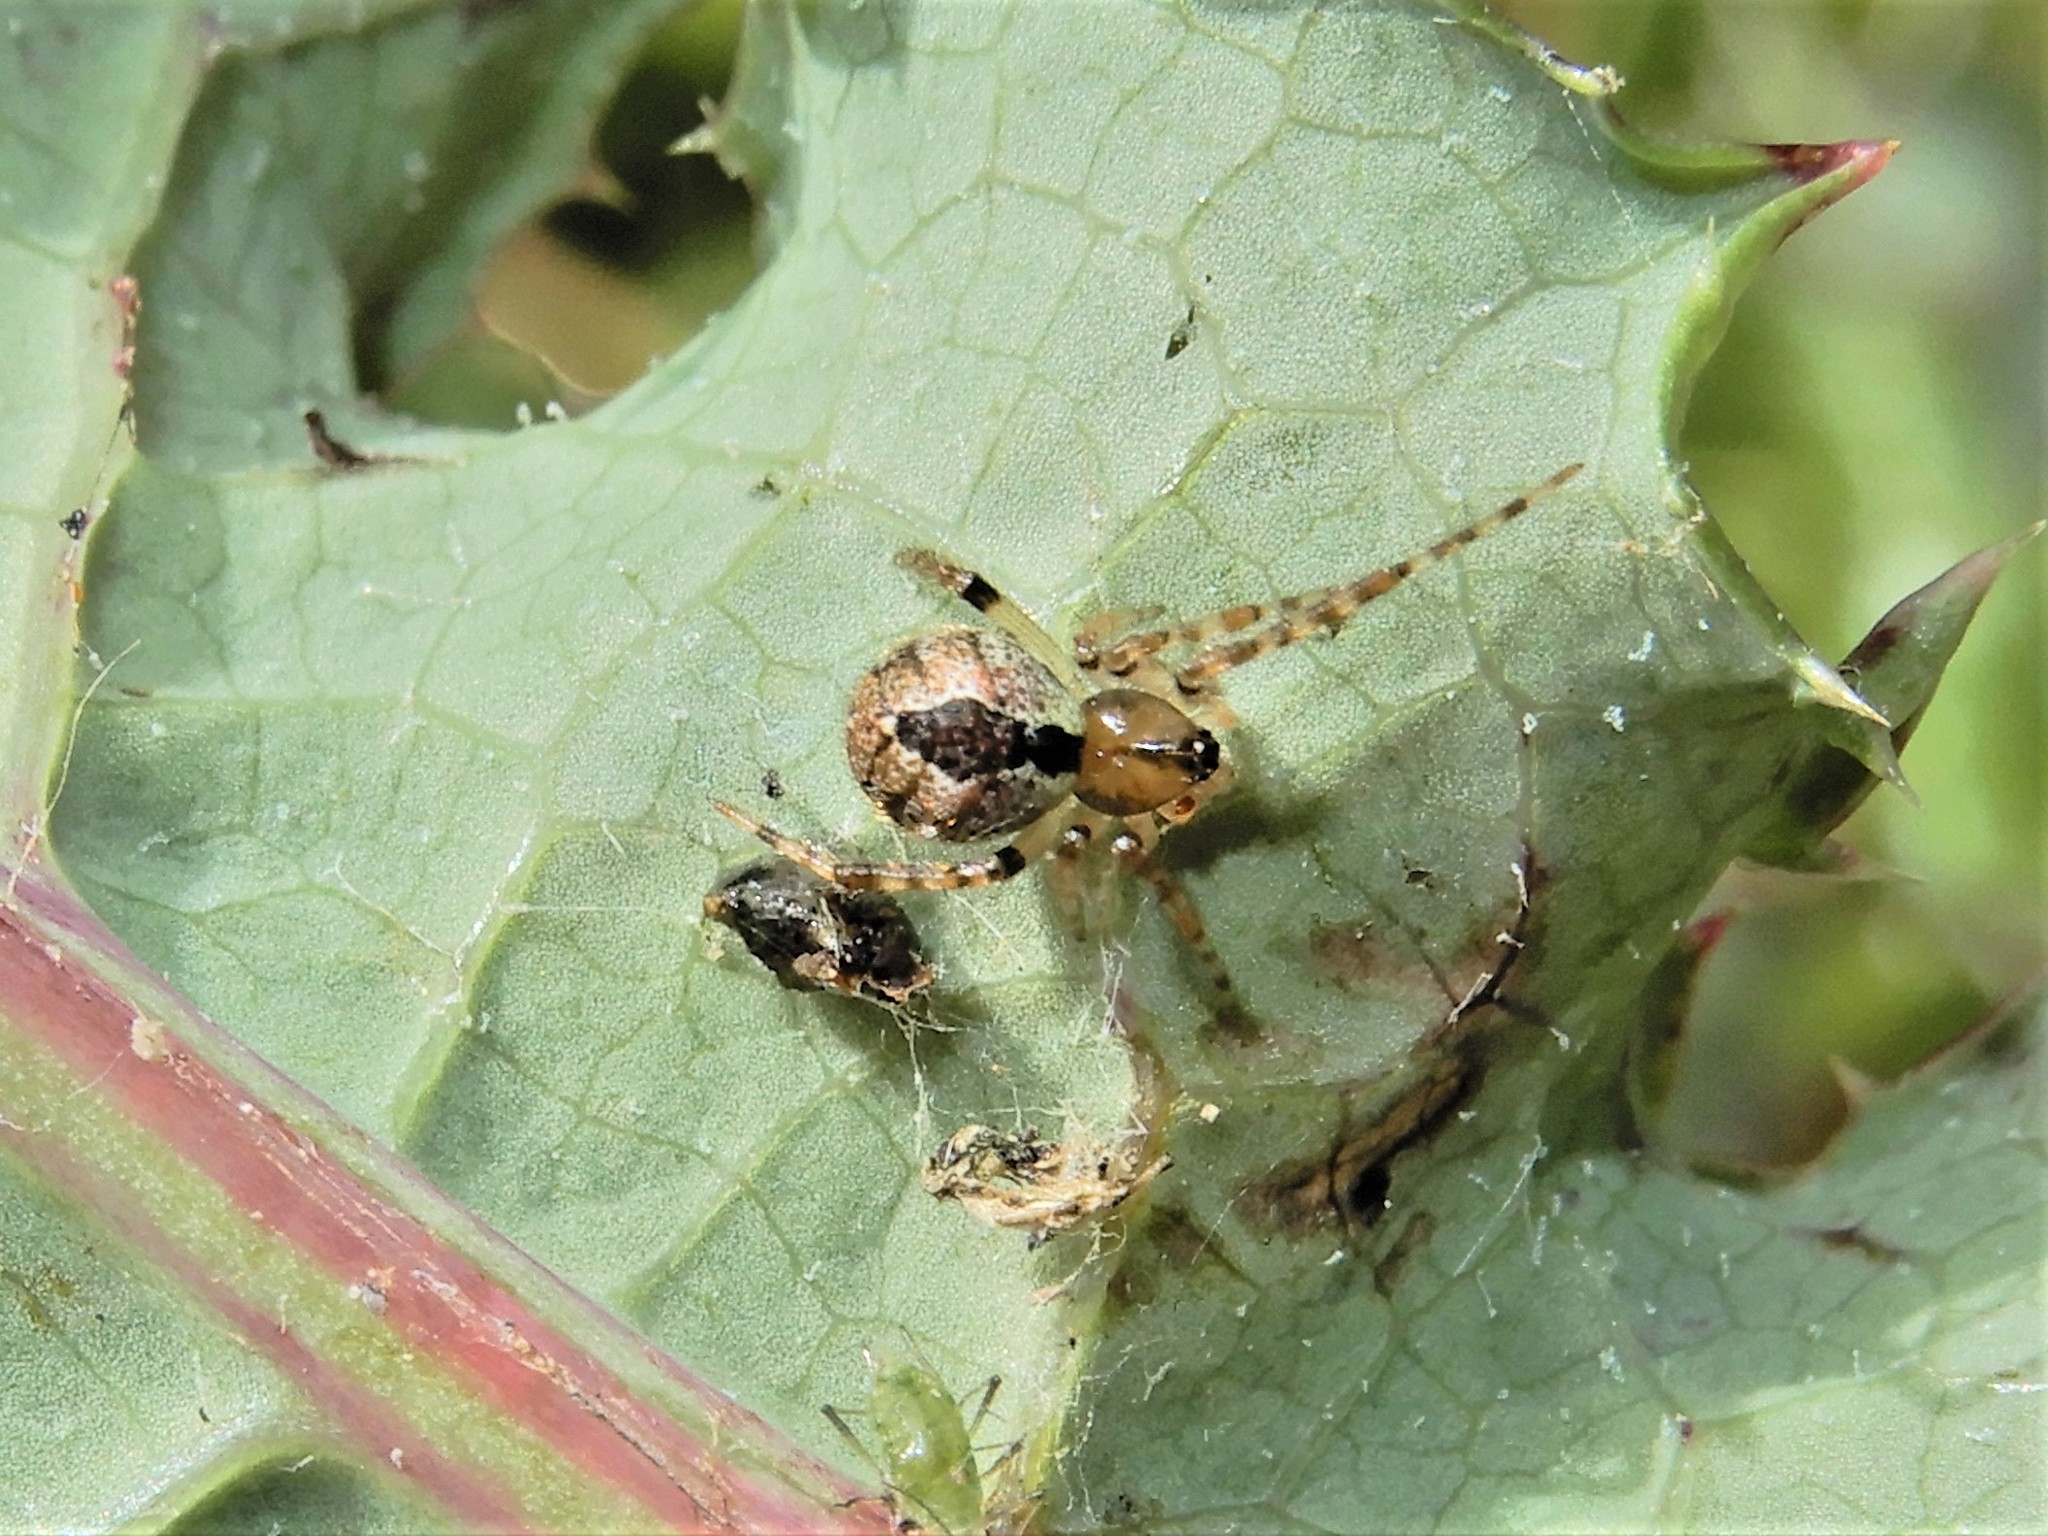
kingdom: Animalia
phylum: Arthropoda
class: Arachnida
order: Araneae
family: Theridiidae
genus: Cryptachaea
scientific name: Cryptachaea veruculata
